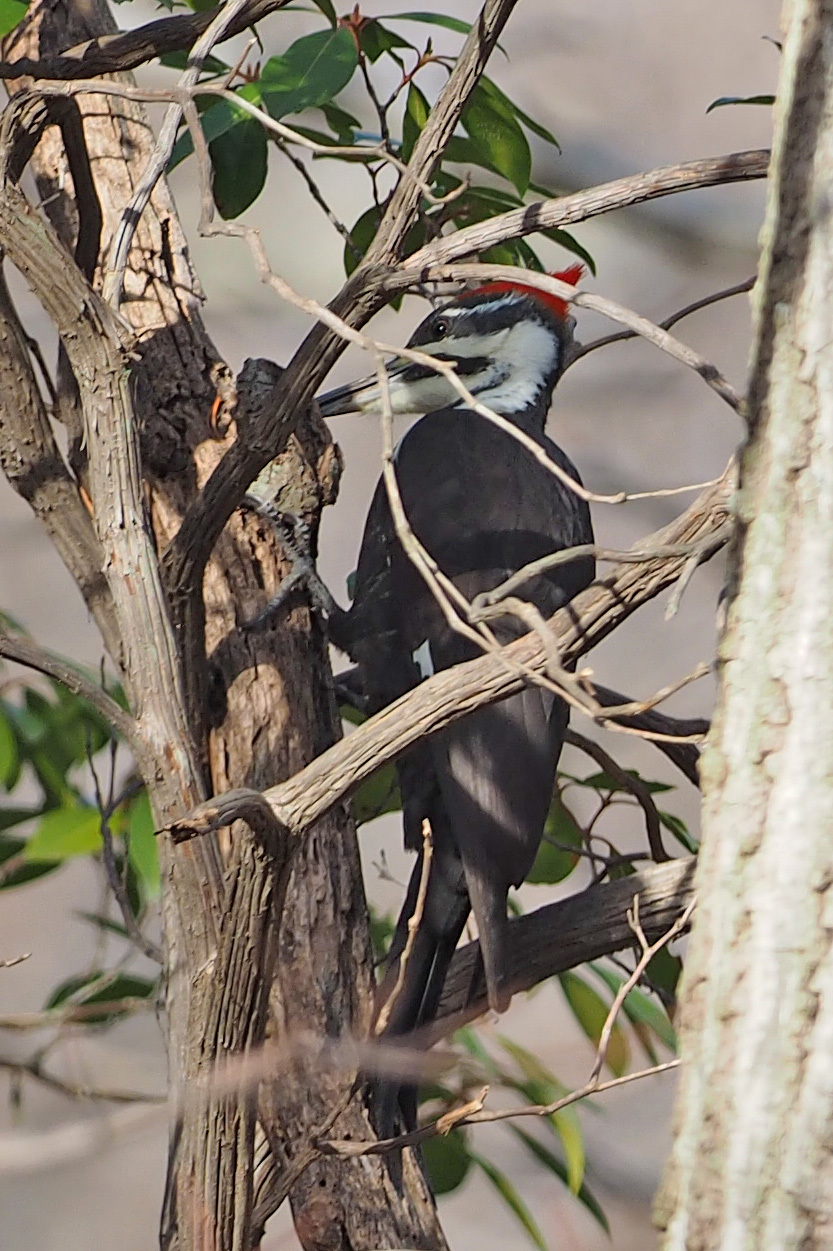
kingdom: Animalia
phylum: Chordata
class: Aves
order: Piciformes
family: Picidae
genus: Dryocopus
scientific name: Dryocopus pileatus
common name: Pileated woodpecker
